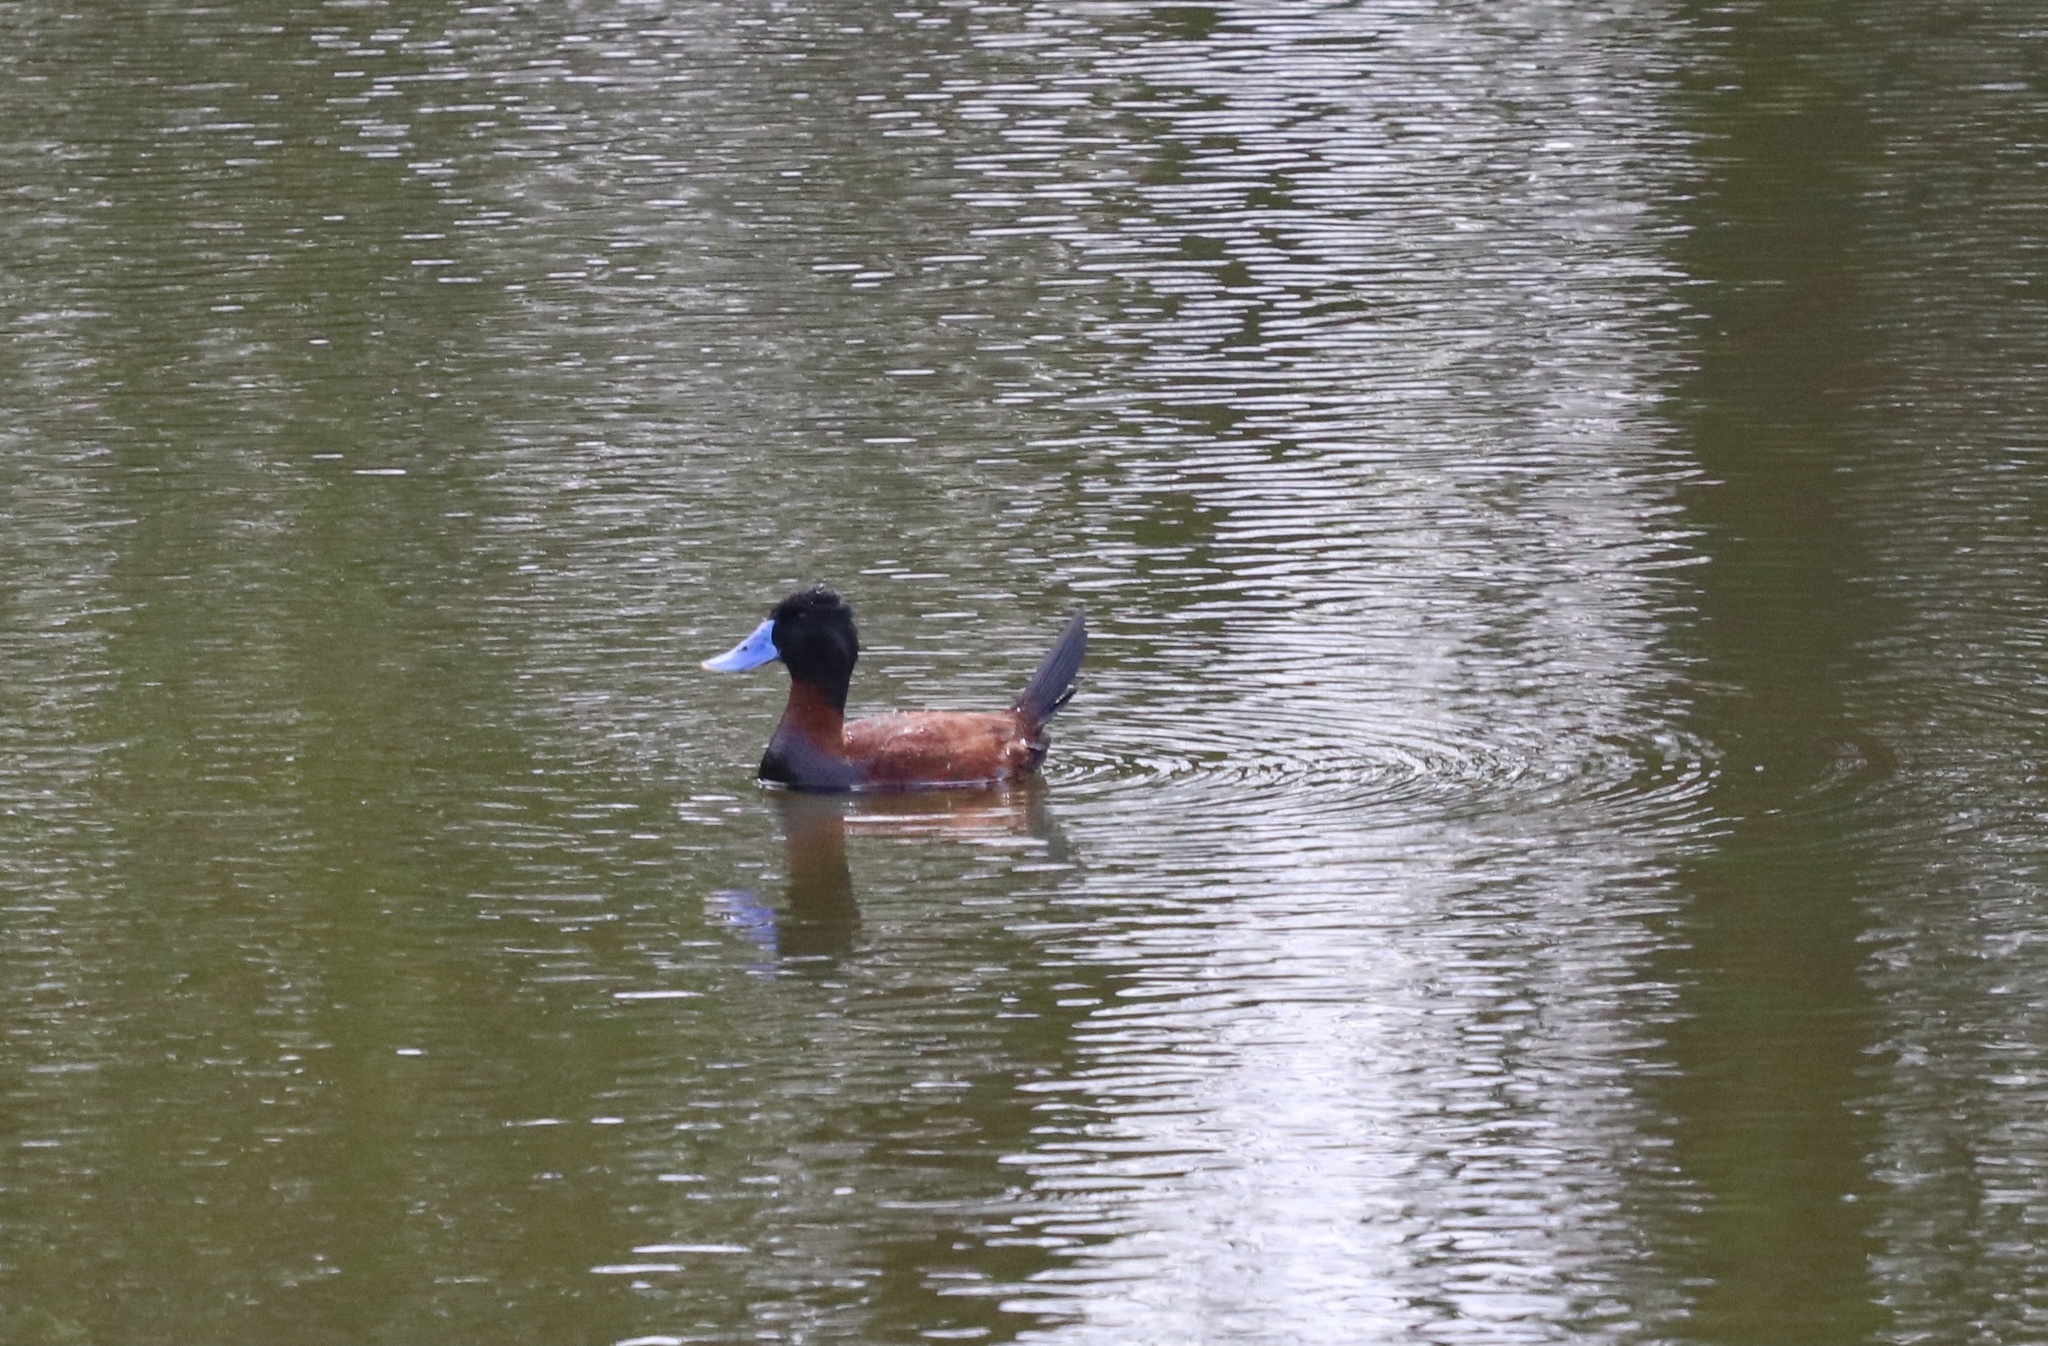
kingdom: Animalia
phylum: Chordata
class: Aves
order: Anseriformes
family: Anatidae
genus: Oxyura
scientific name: Oxyura ferruginea
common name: Andean duck
